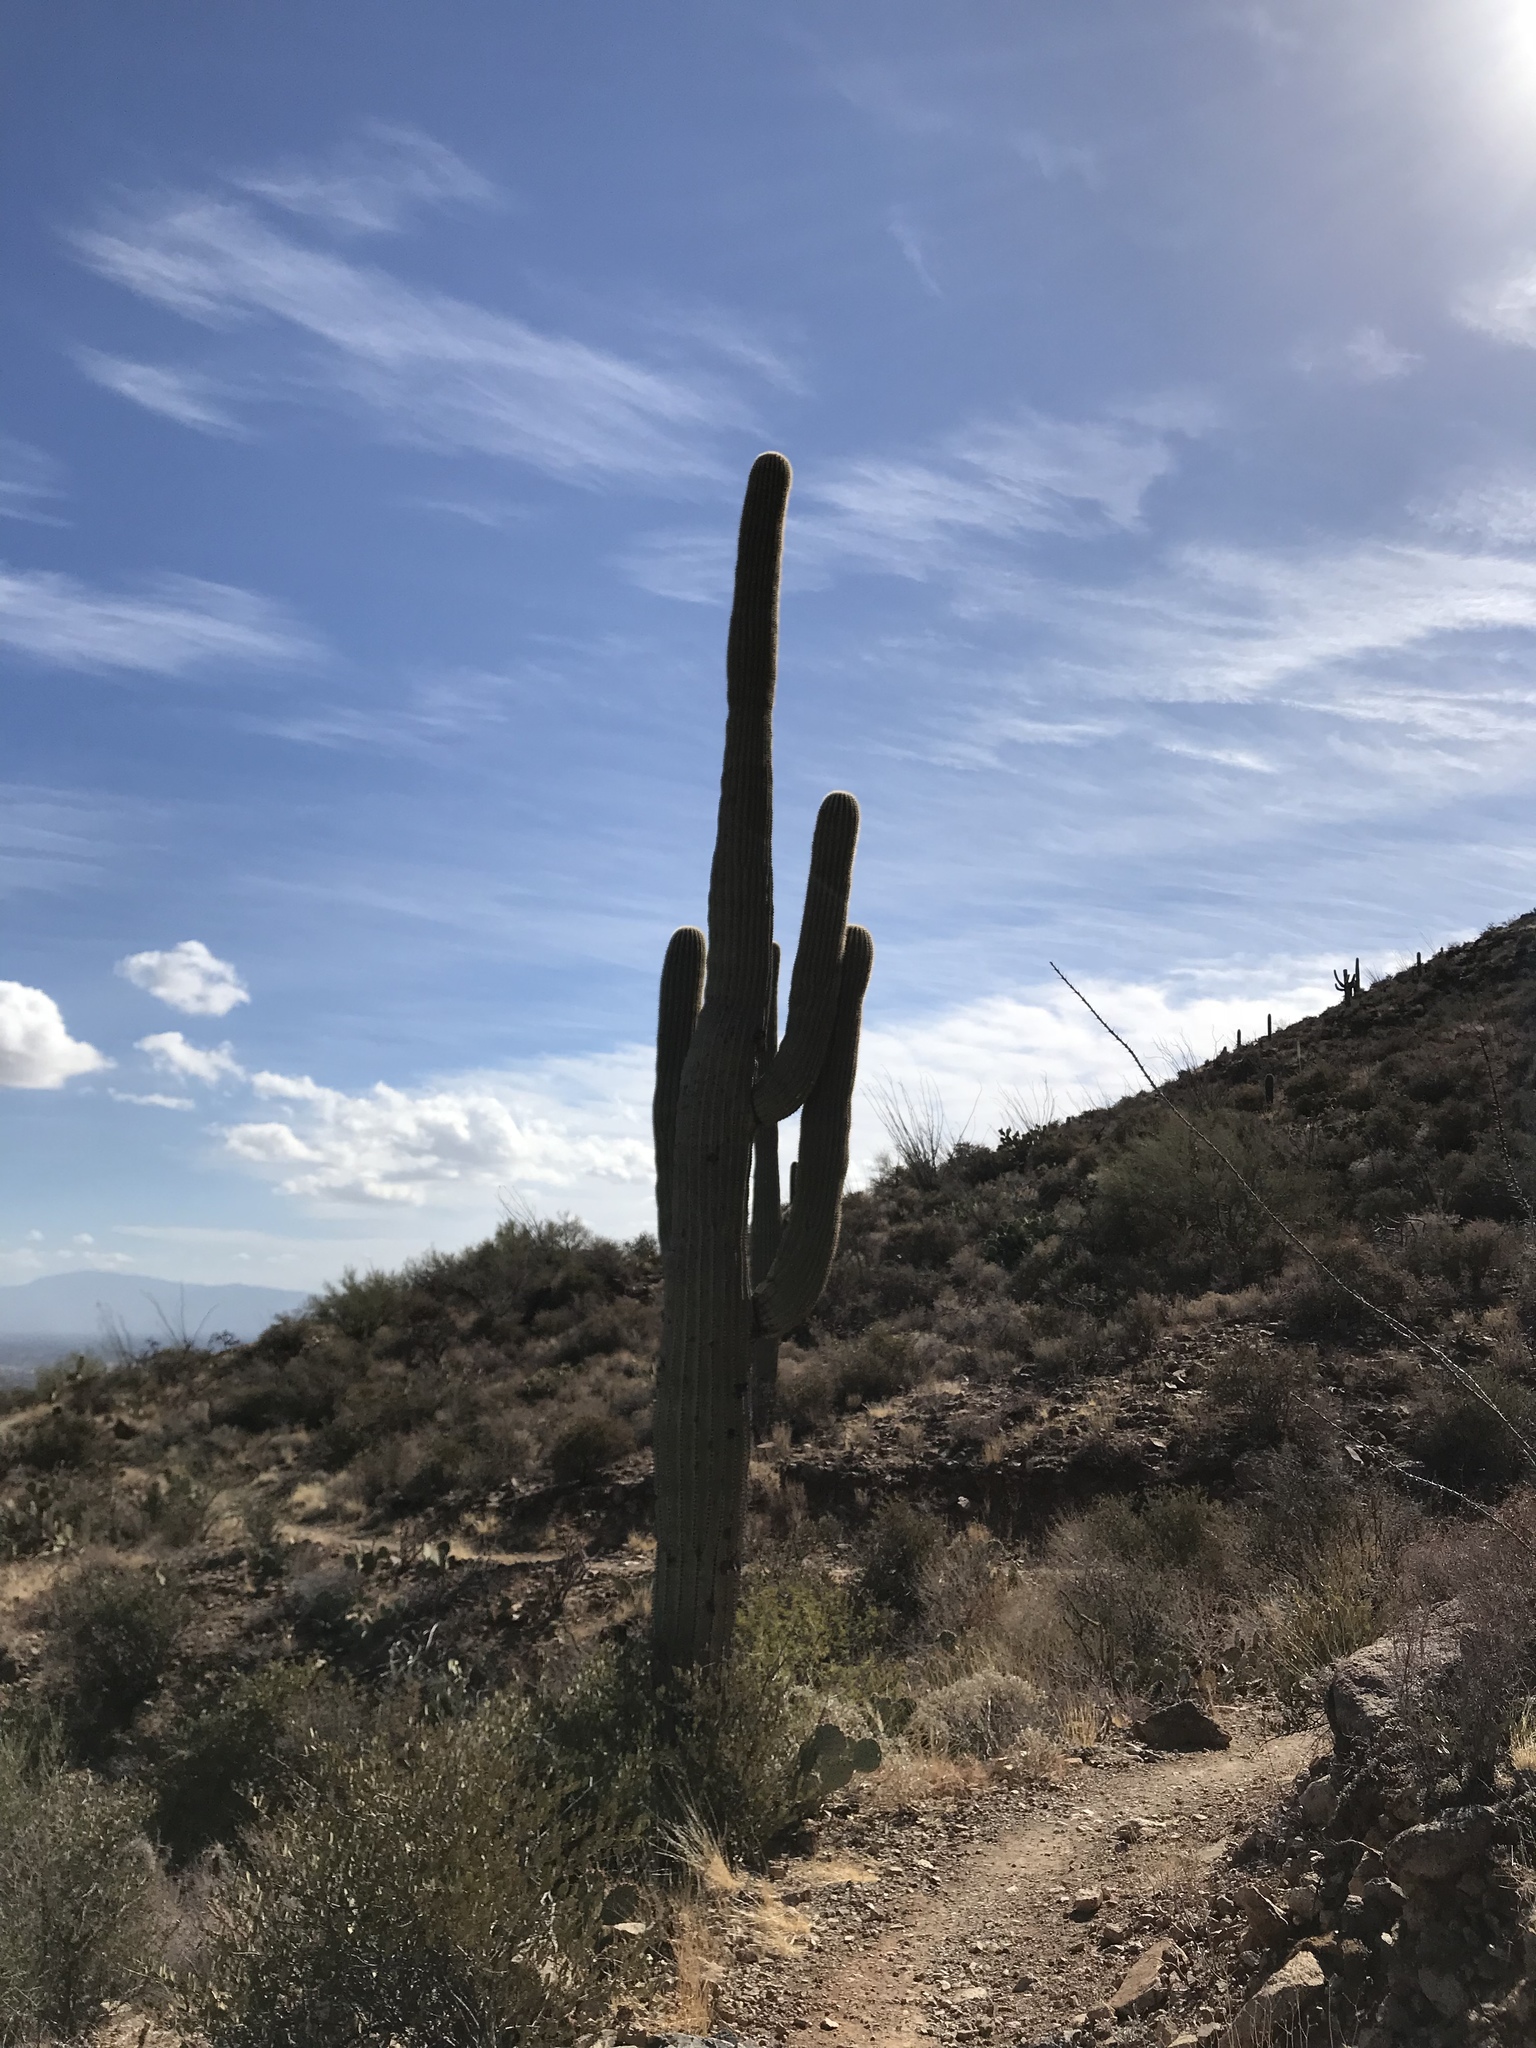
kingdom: Plantae
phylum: Tracheophyta
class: Magnoliopsida
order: Caryophyllales
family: Cactaceae
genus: Carnegiea
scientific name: Carnegiea gigantea
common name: Saguaro
